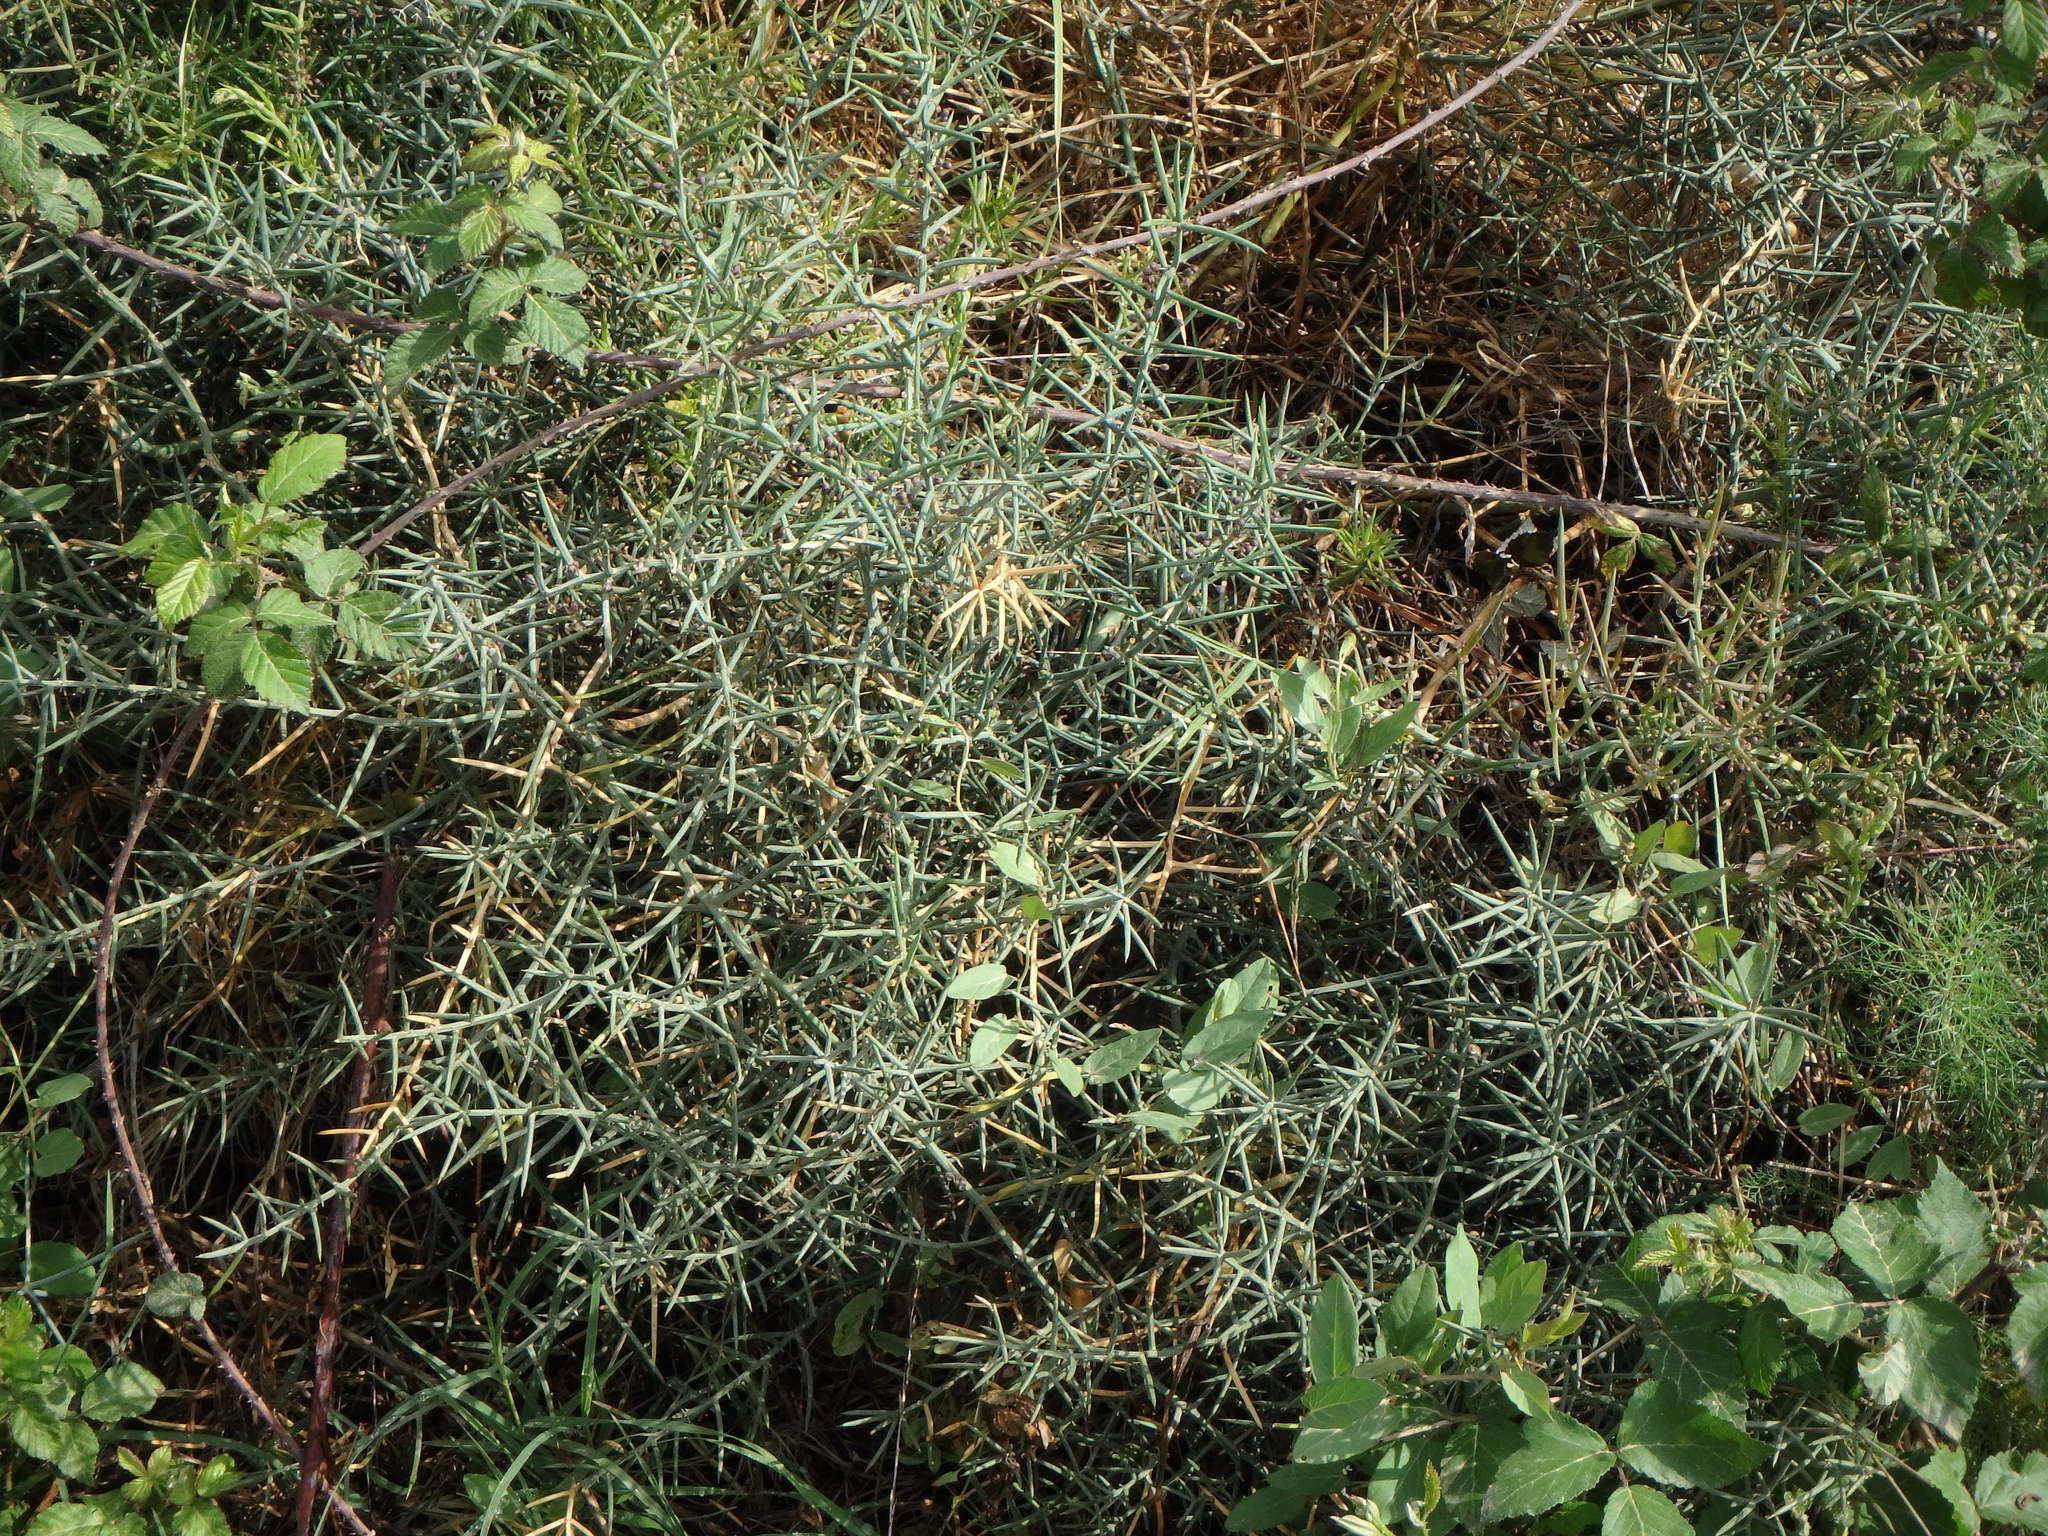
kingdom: Plantae
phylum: Tracheophyta
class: Liliopsida
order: Asparagales
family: Asparagaceae
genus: Asparagus
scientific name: Asparagus horridus
